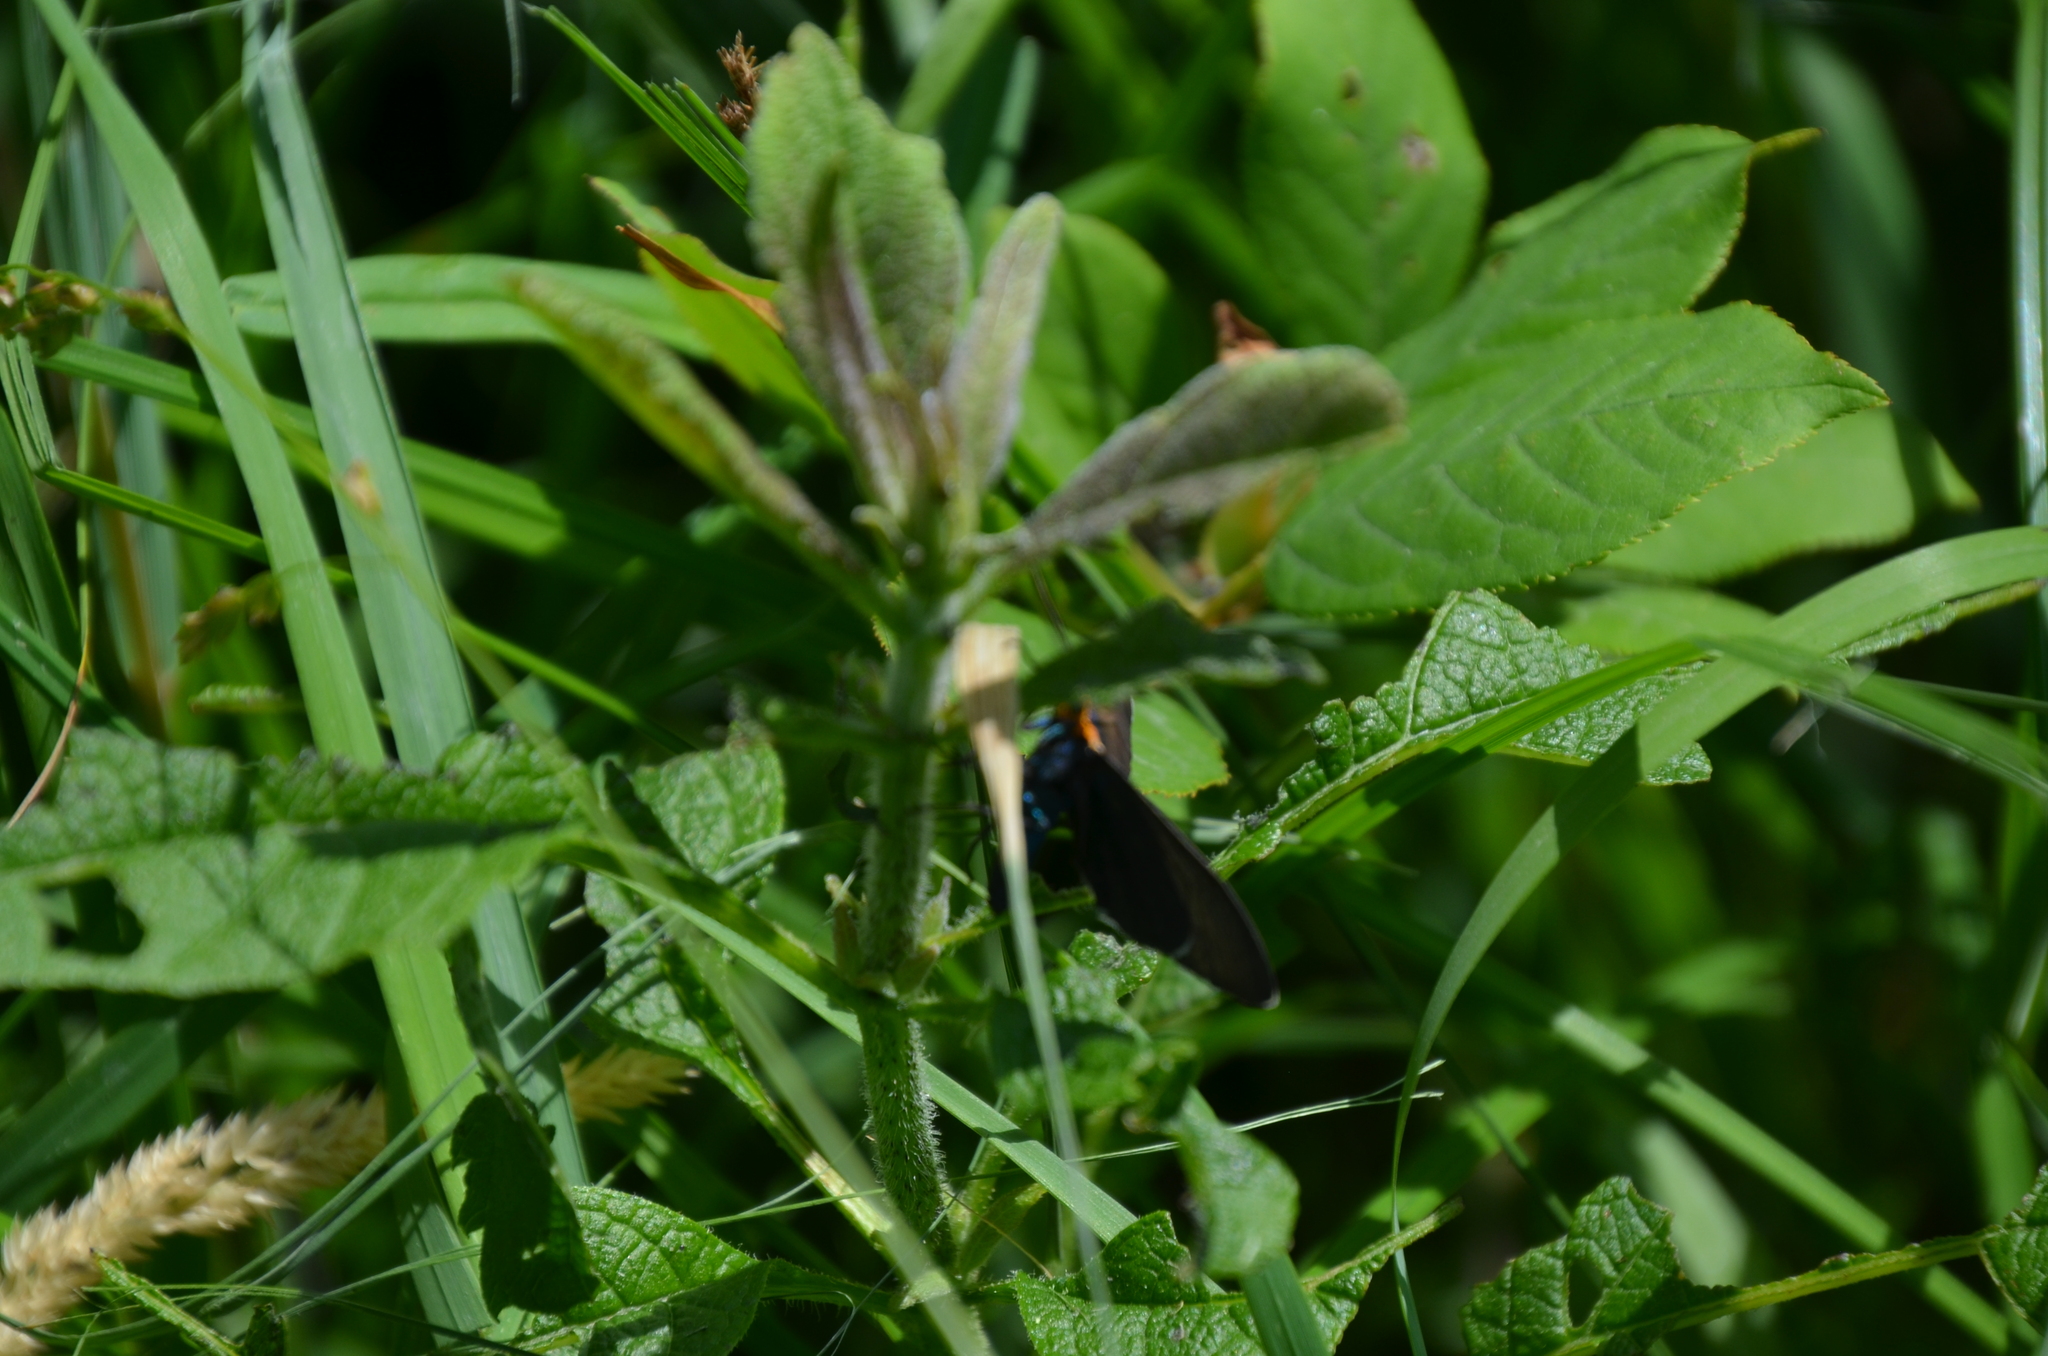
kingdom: Animalia
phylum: Arthropoda
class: Insecta
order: Lepidoptera
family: Erebidae
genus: Ctenucha
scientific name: Ctenucha virginica
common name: Virginia ctenucha moth
